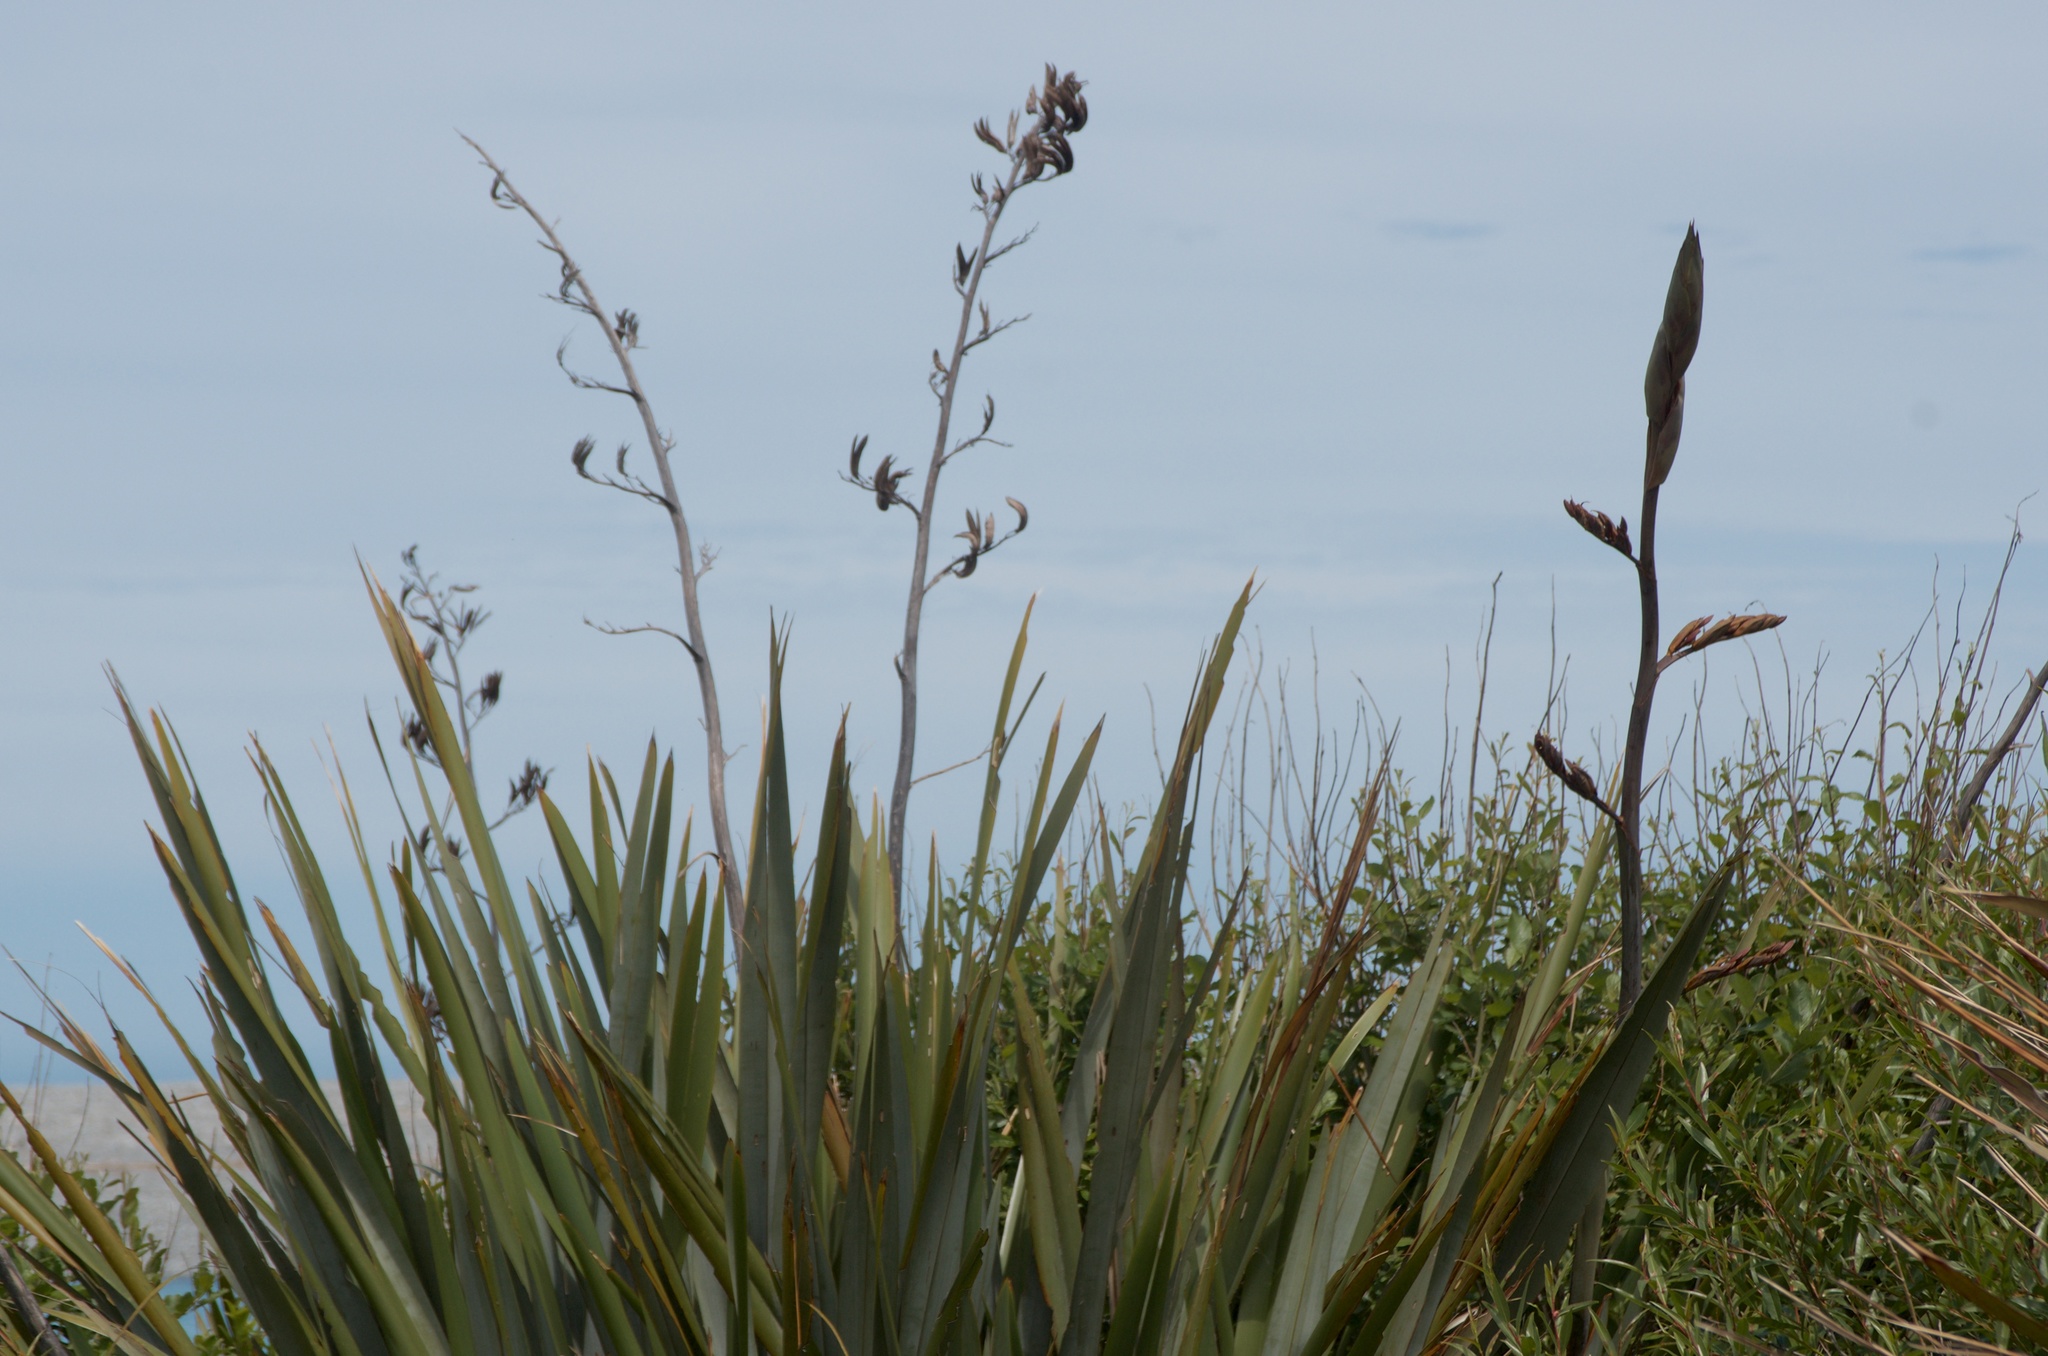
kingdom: Plantae
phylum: Tracheophyta
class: Liliopsida
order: Asparagales
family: Asphodelaceae
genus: Phormium
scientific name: Phormium tenax
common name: New zealand flax
